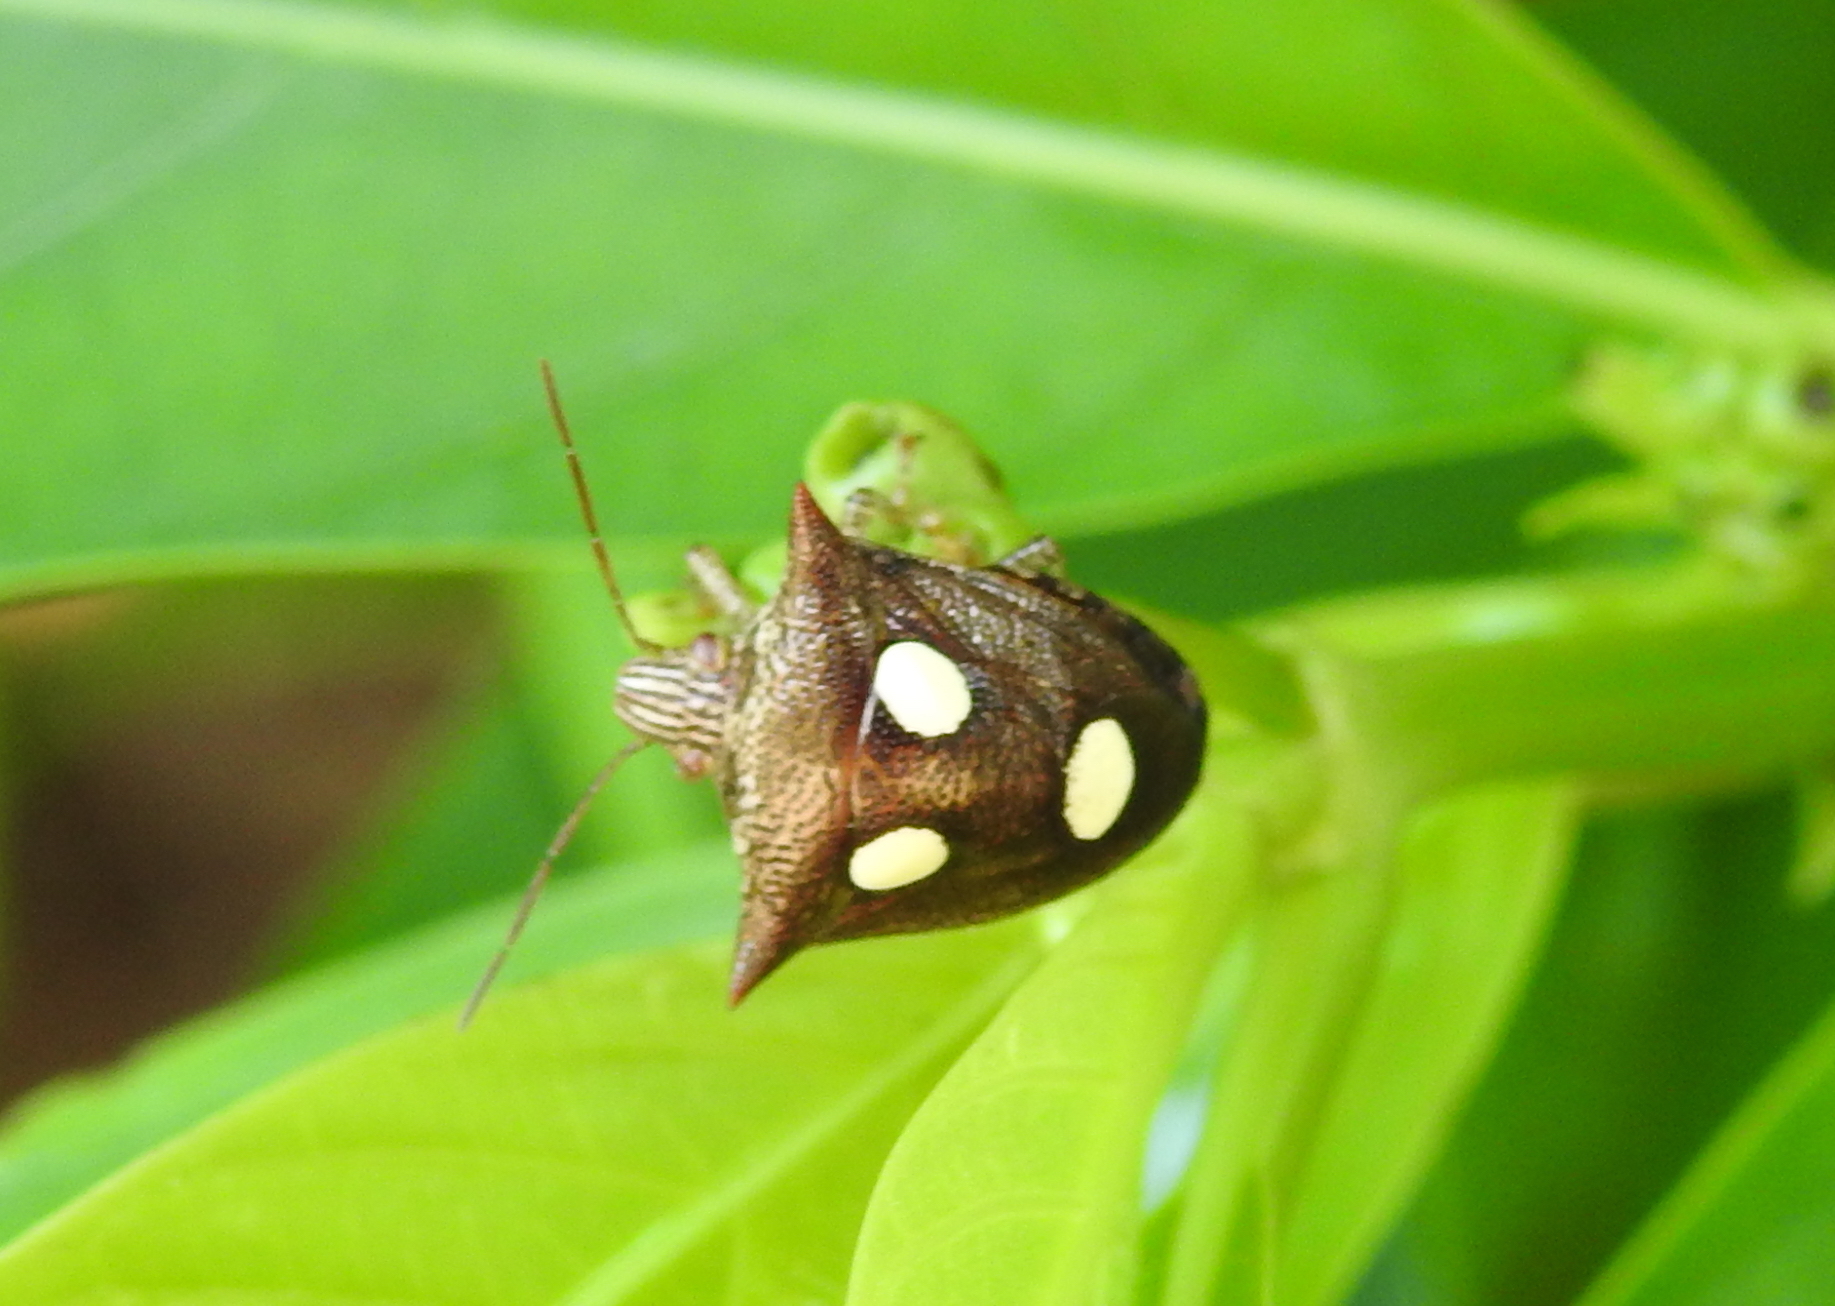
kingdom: Animalia
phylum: Arthropoda
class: Insecta
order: Hemiptera
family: Pentatomidae
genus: Paracritheus
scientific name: Paracritheus
